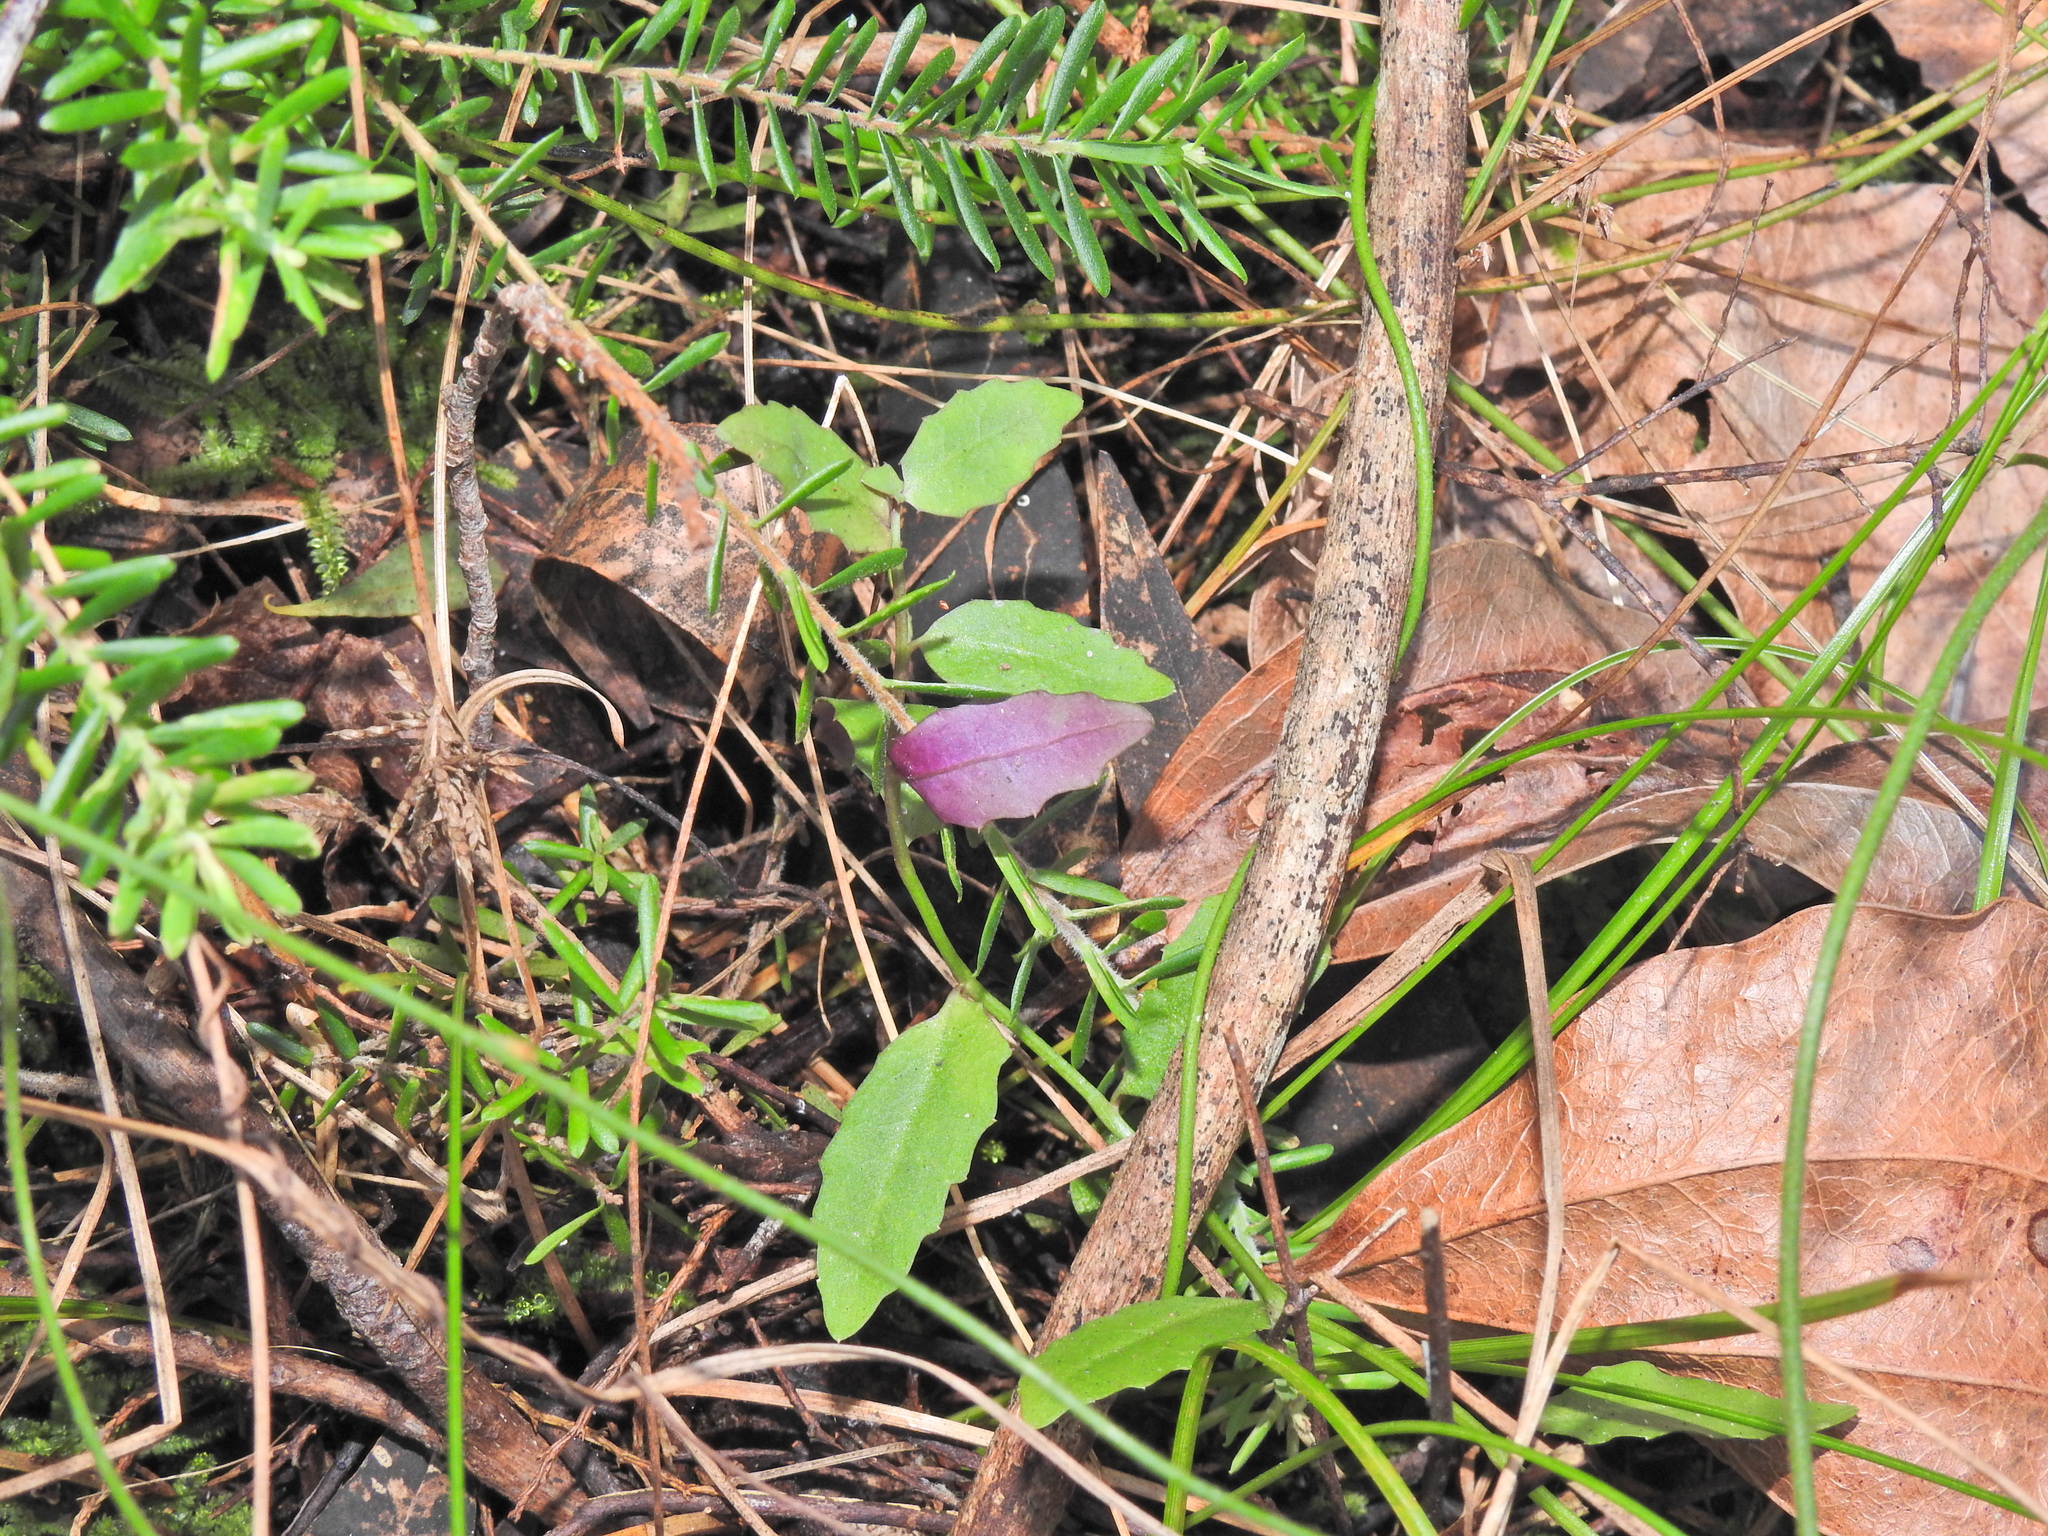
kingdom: Plantae
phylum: Tracheophyta
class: Magnoliopsida
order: Asterales
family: Campanulaceae
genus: Lobelia
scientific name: Lobelia purpurascens
